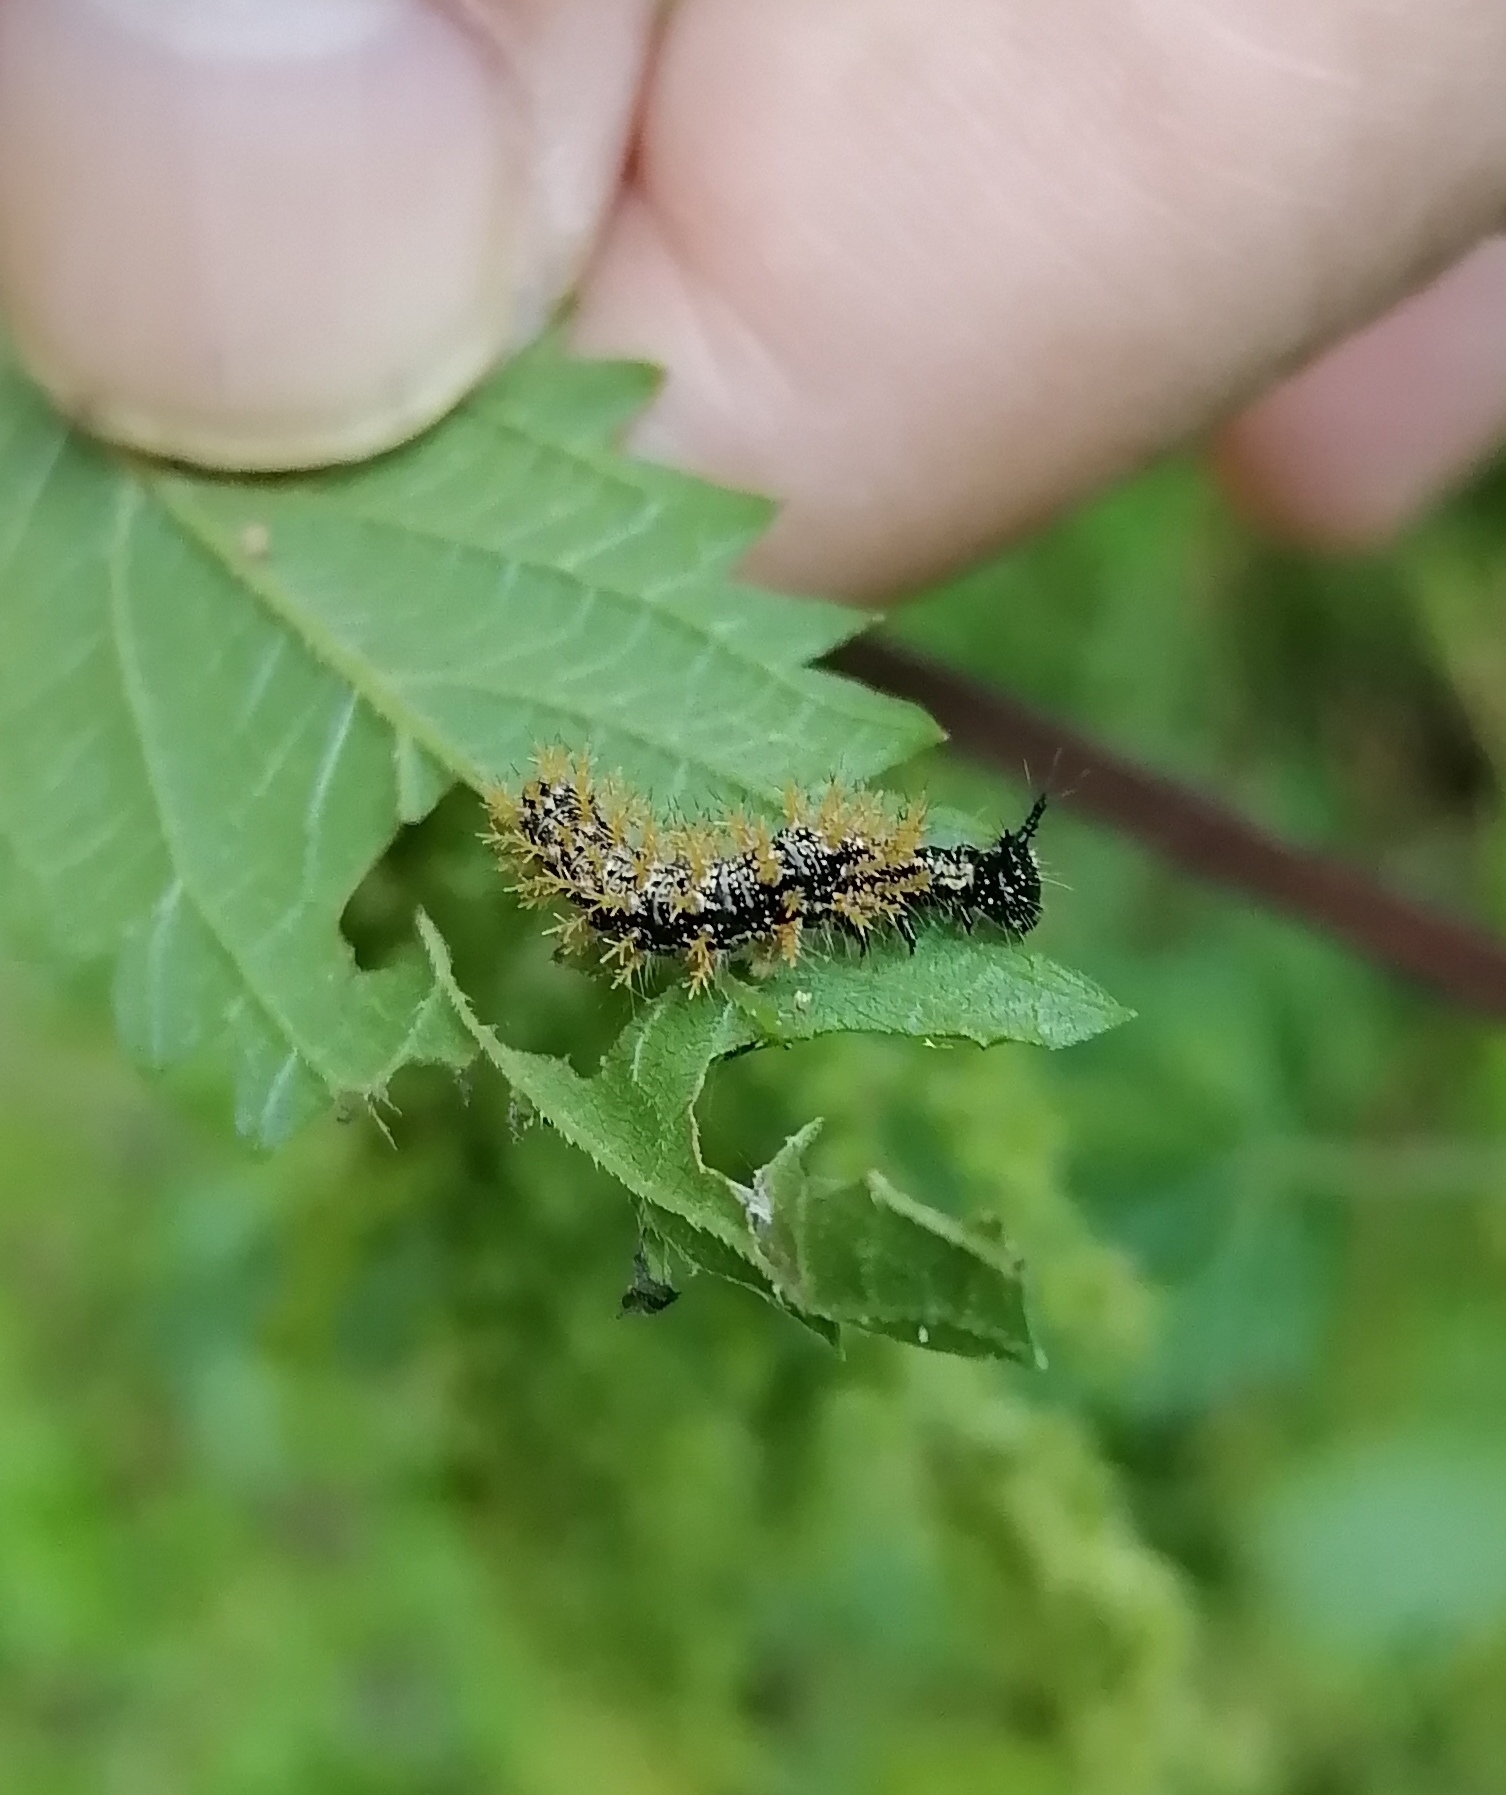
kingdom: Animalia
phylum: Arthropoda
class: Insecta
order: Lepidoptera
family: Nymphalidae
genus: Araschnia
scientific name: Araschnia levana
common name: Map butterfly
